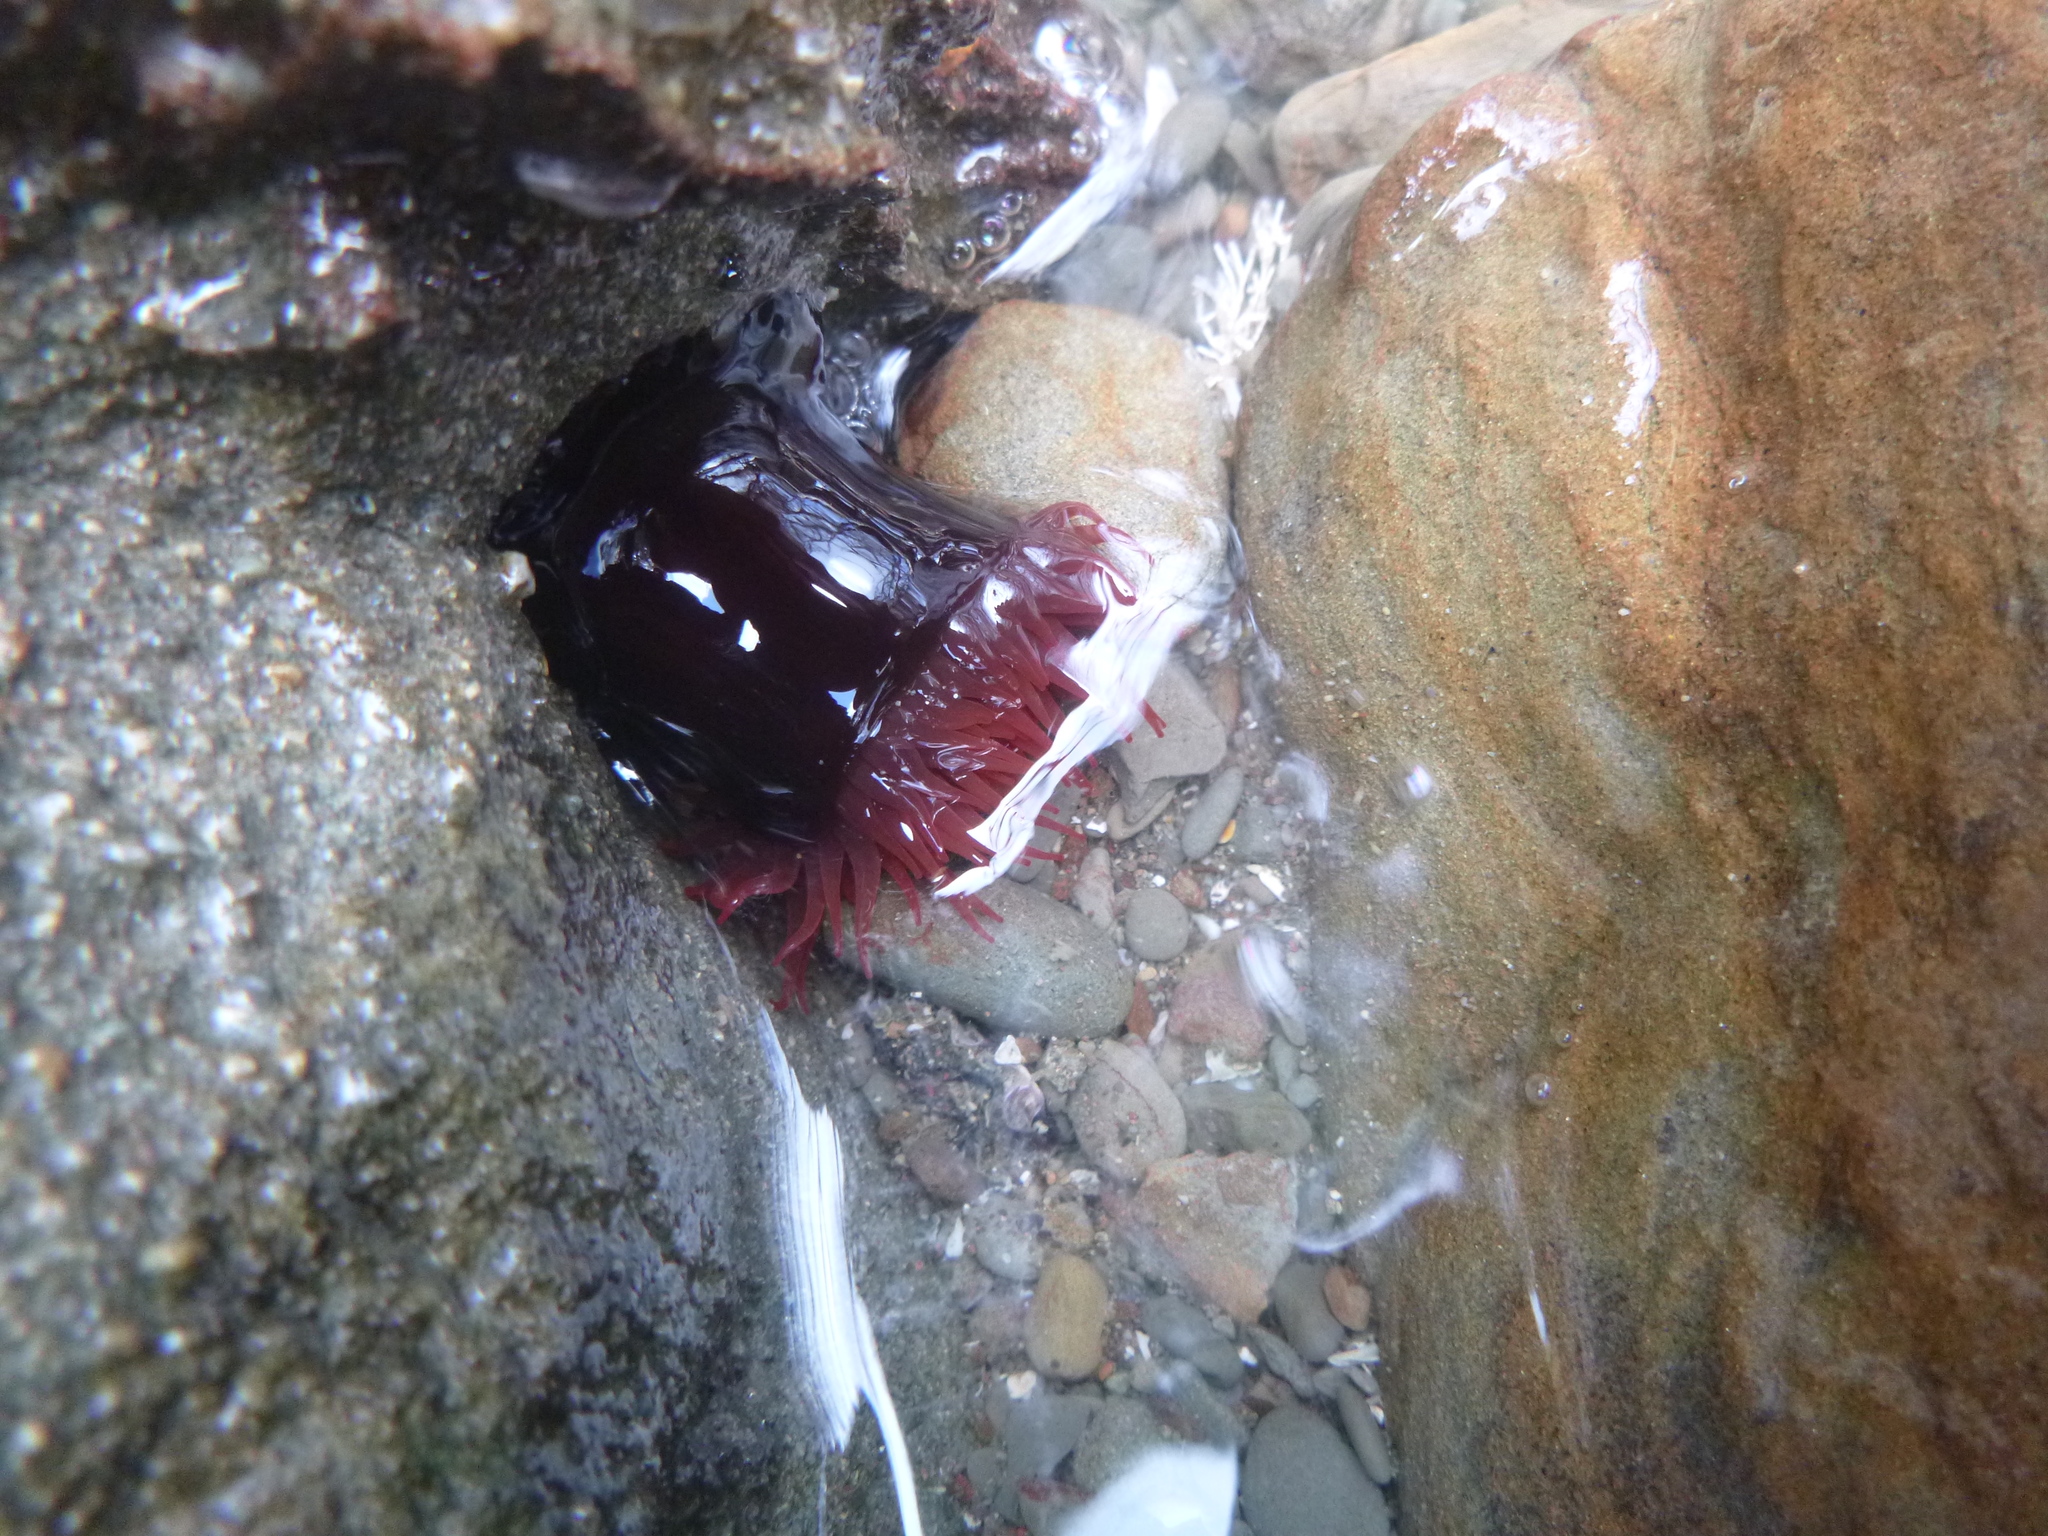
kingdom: Animalia
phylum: Cnidaria
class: Anthozoa
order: Actiniaria
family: Actiniidae
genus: Actinia
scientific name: Actinia tenebrosa
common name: Waratah anemone
